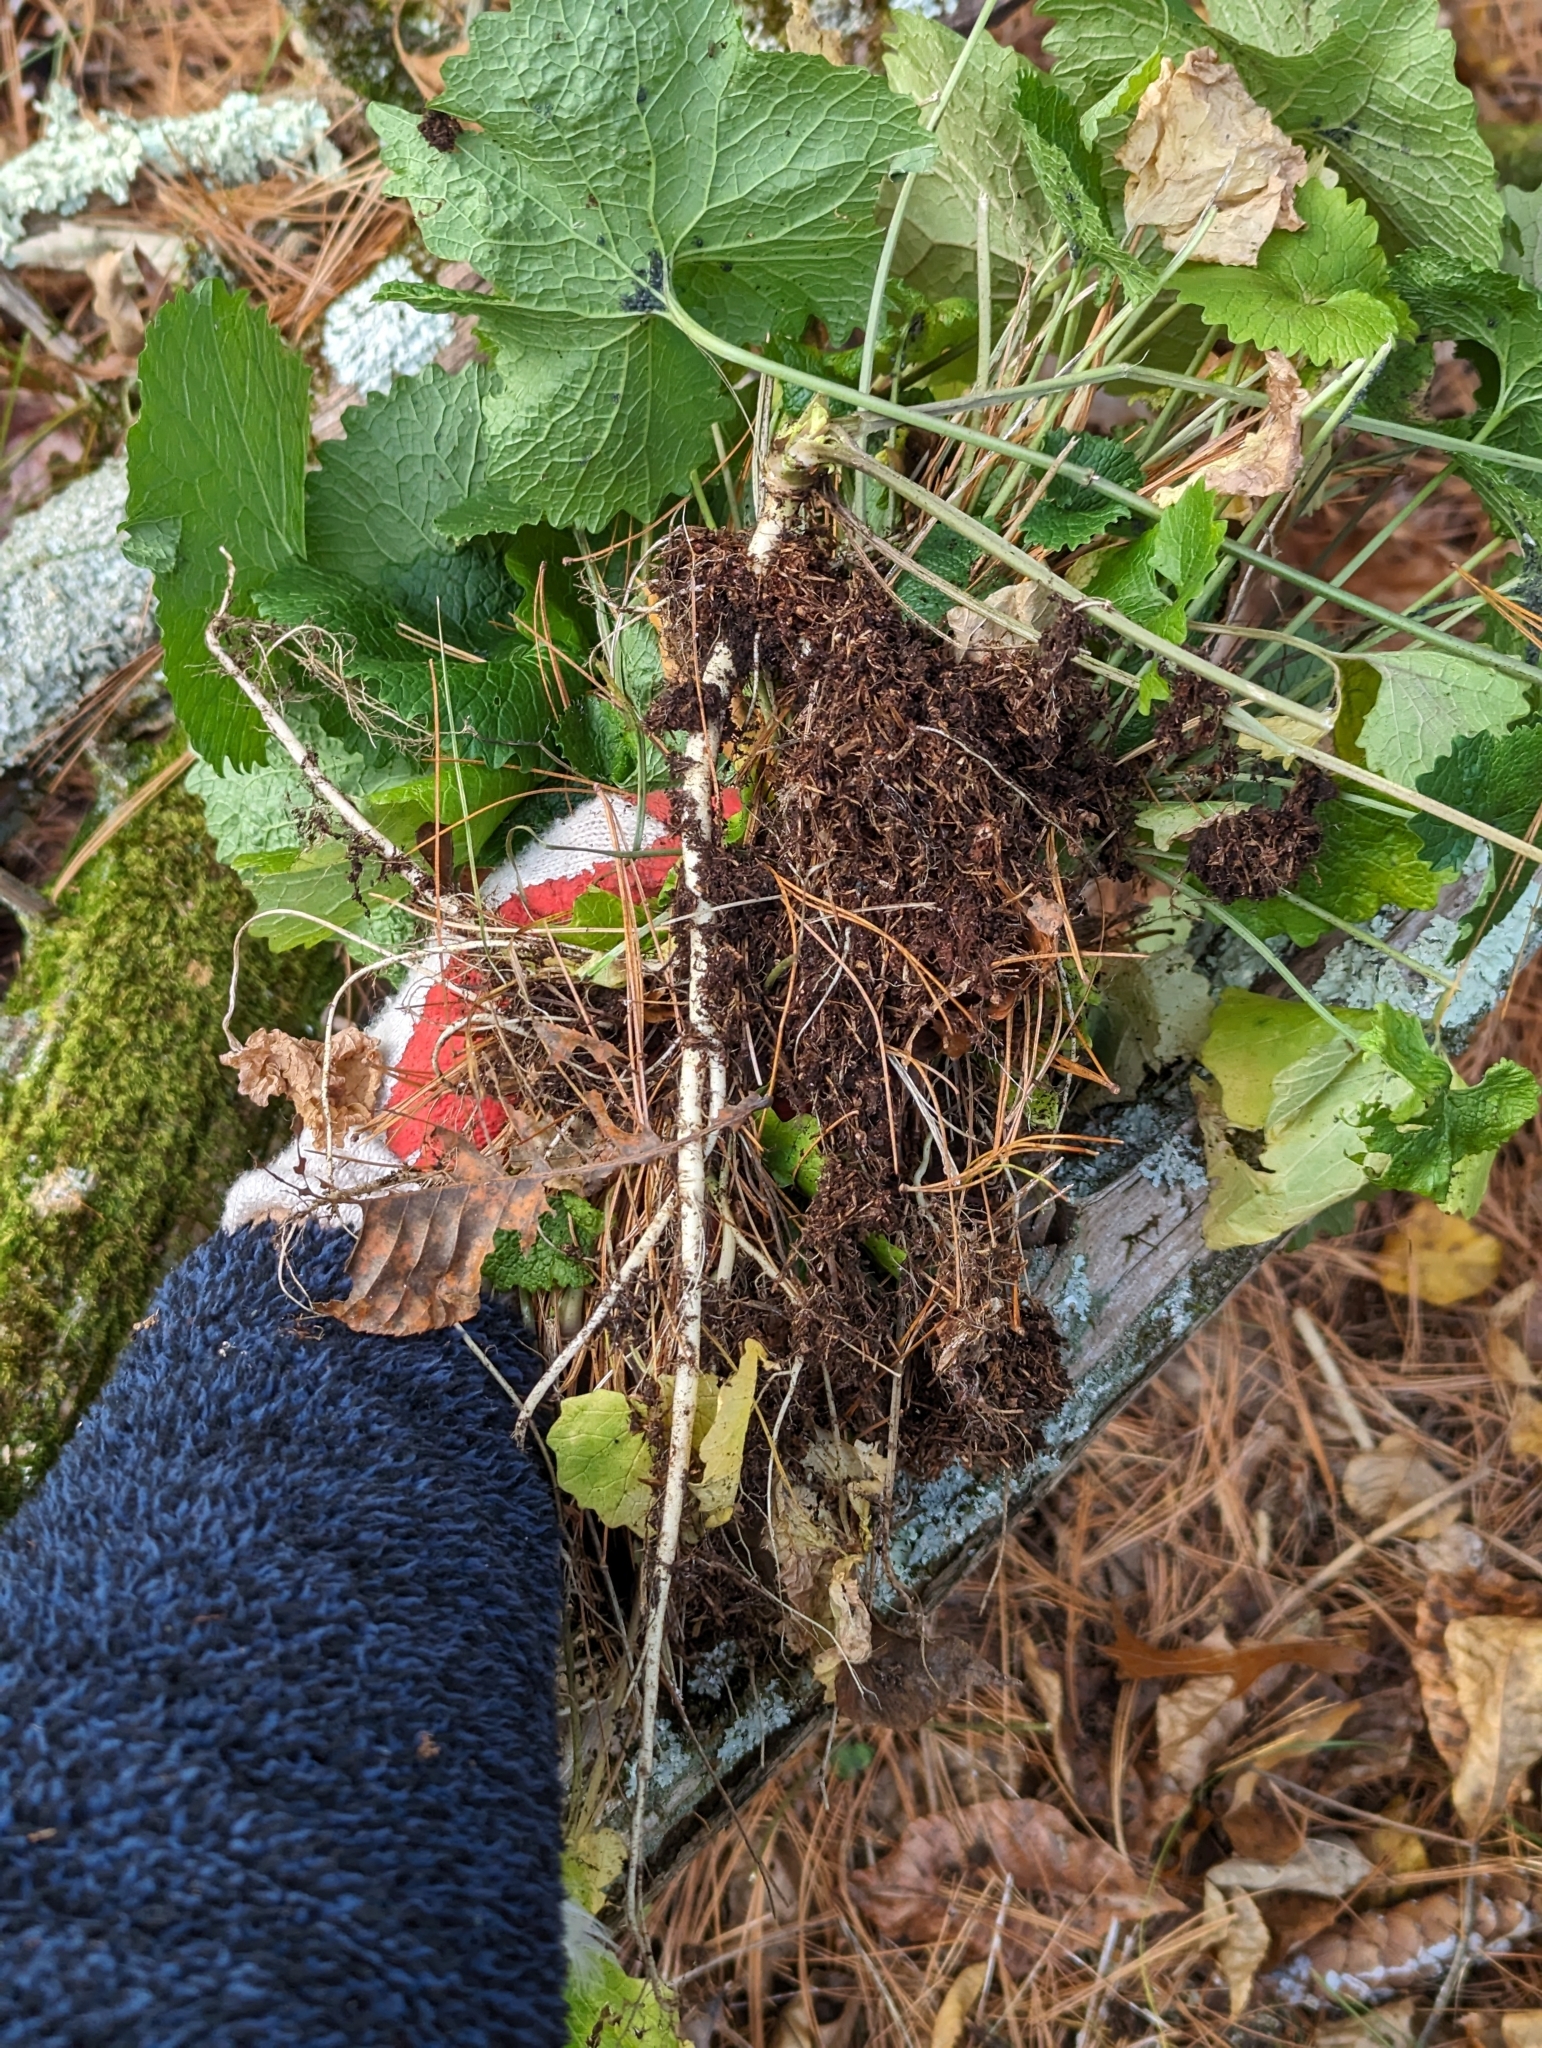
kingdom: Plantae
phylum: Tracheophyta
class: Magnoliopsida
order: Brassicales
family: Brassicaceae
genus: Alliaria
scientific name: Alliaria petiolata
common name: Garlic mustard
